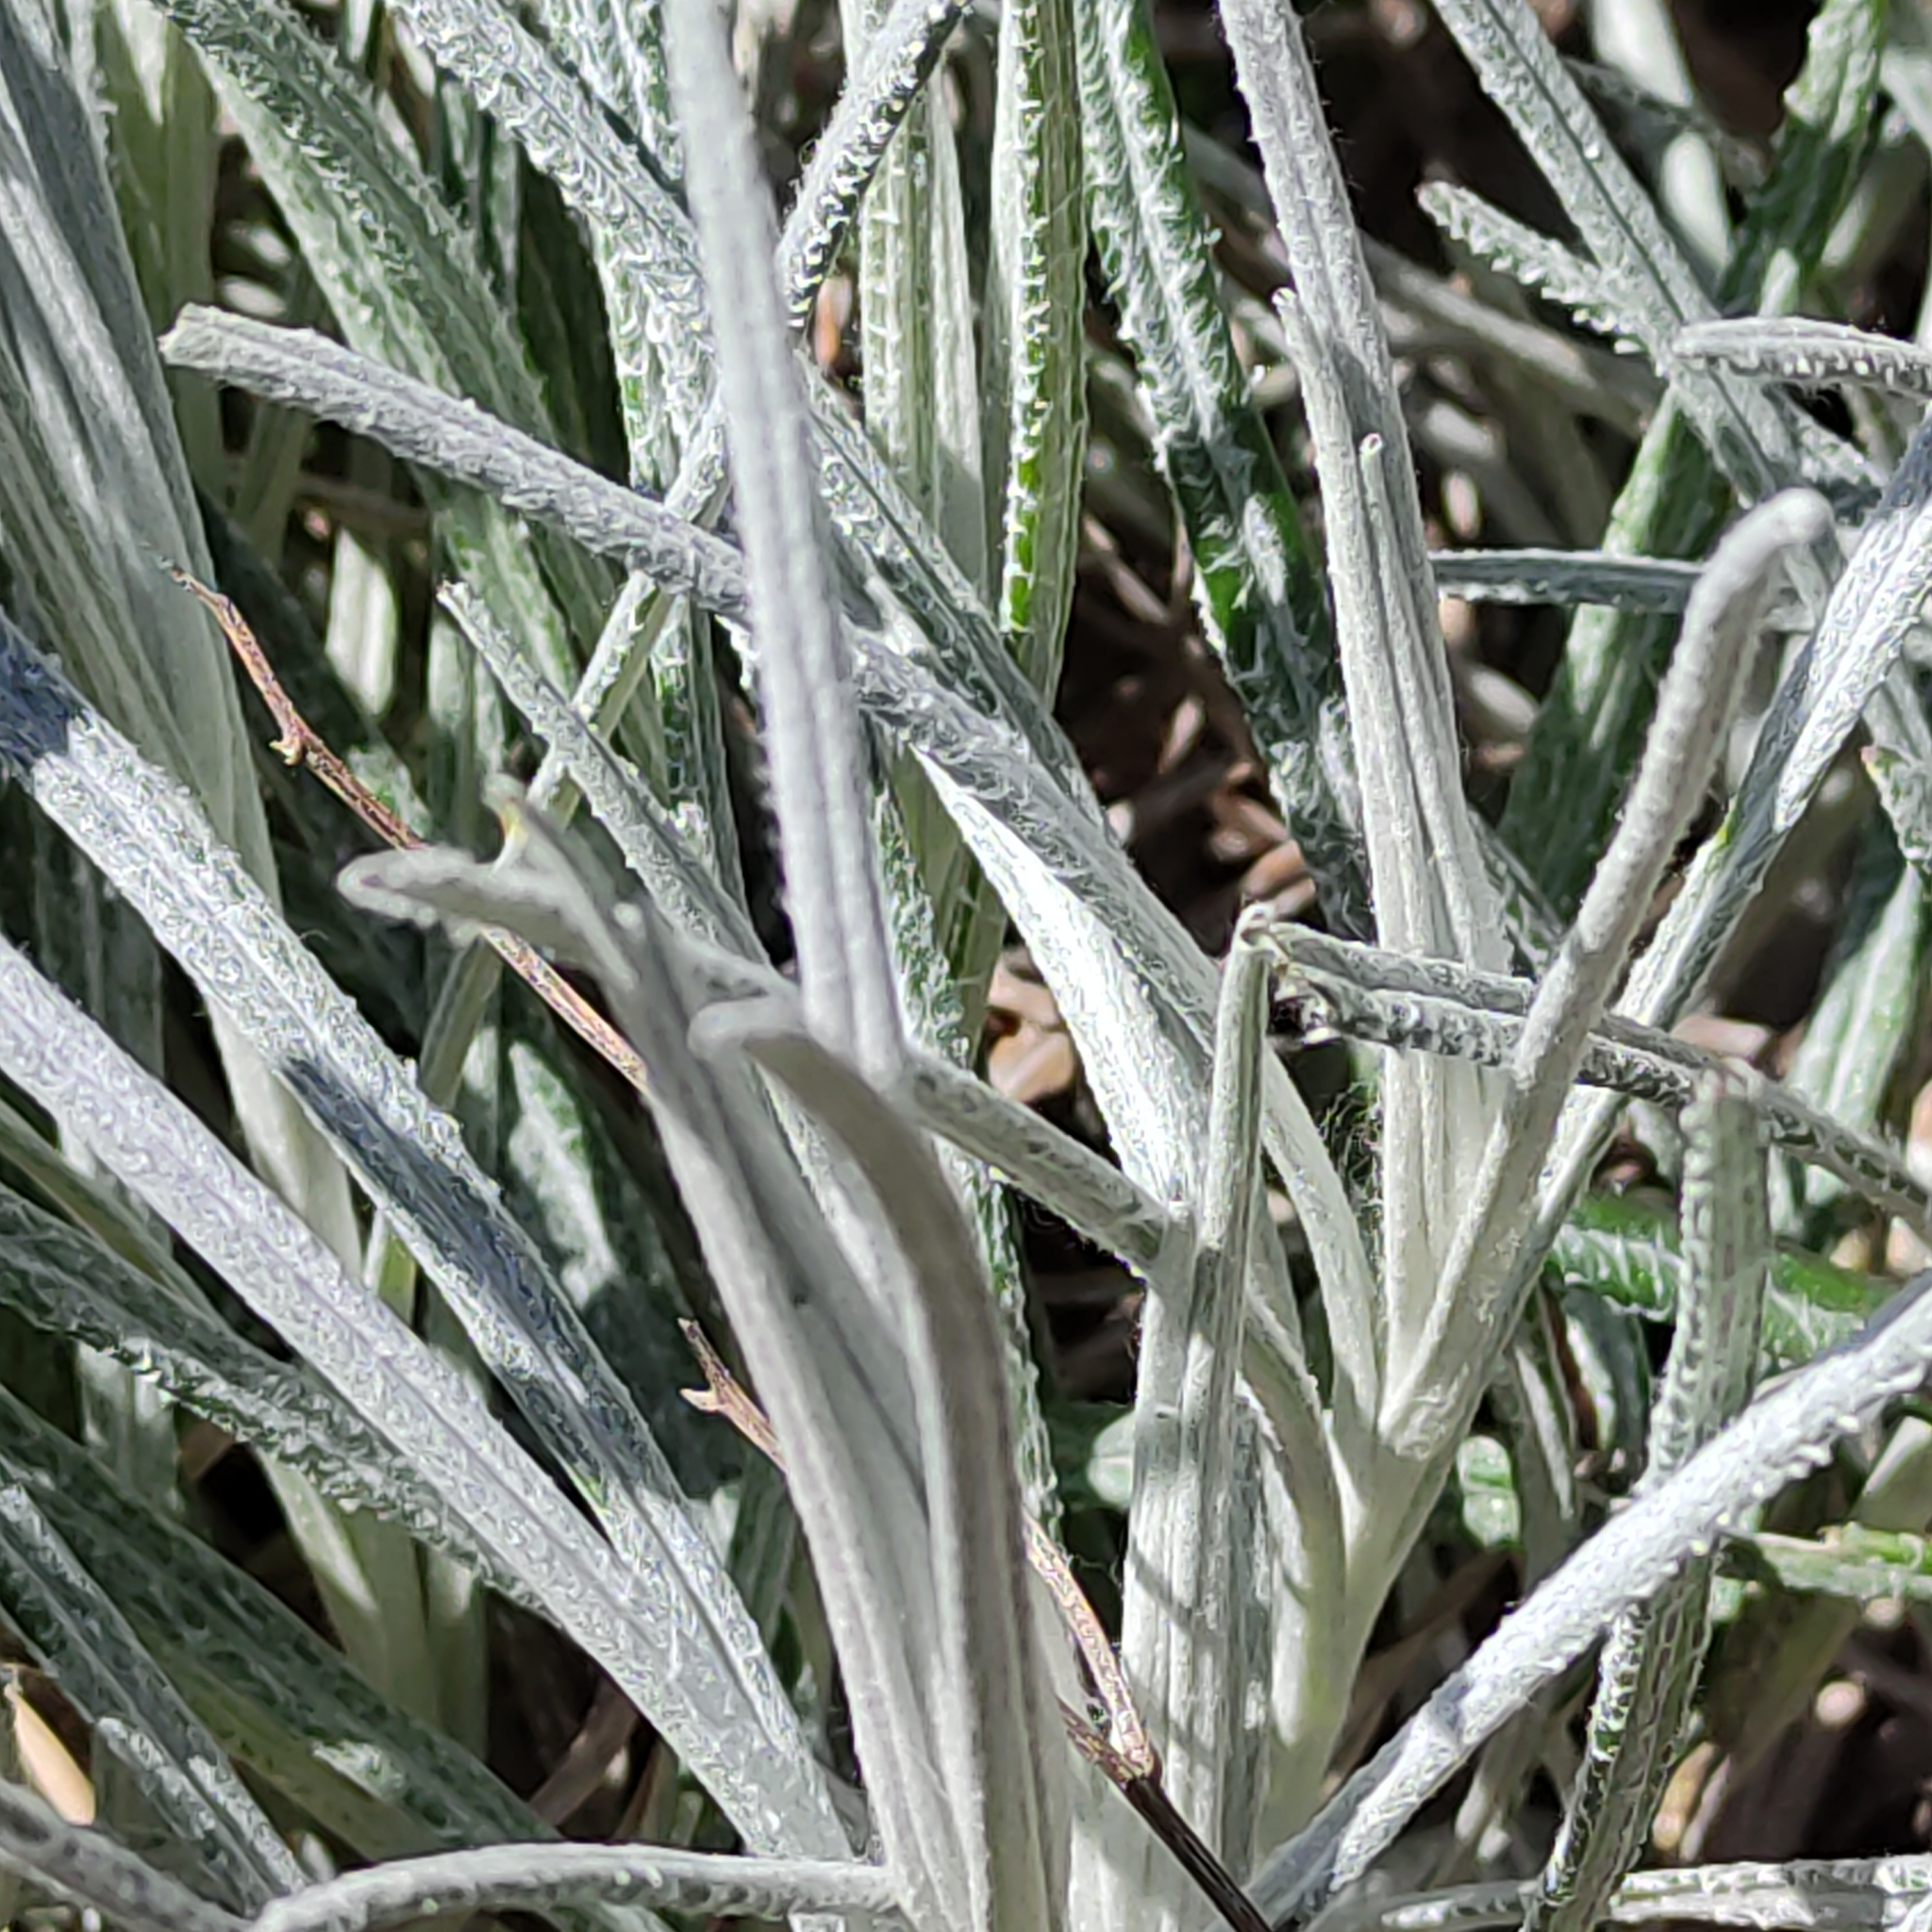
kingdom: Plantae
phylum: Tracheophyta
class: Magnoliopsida
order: Asterales
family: Asteraceae
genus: Senecio
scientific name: Senecio quadridentatus
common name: Cotton fireweed
